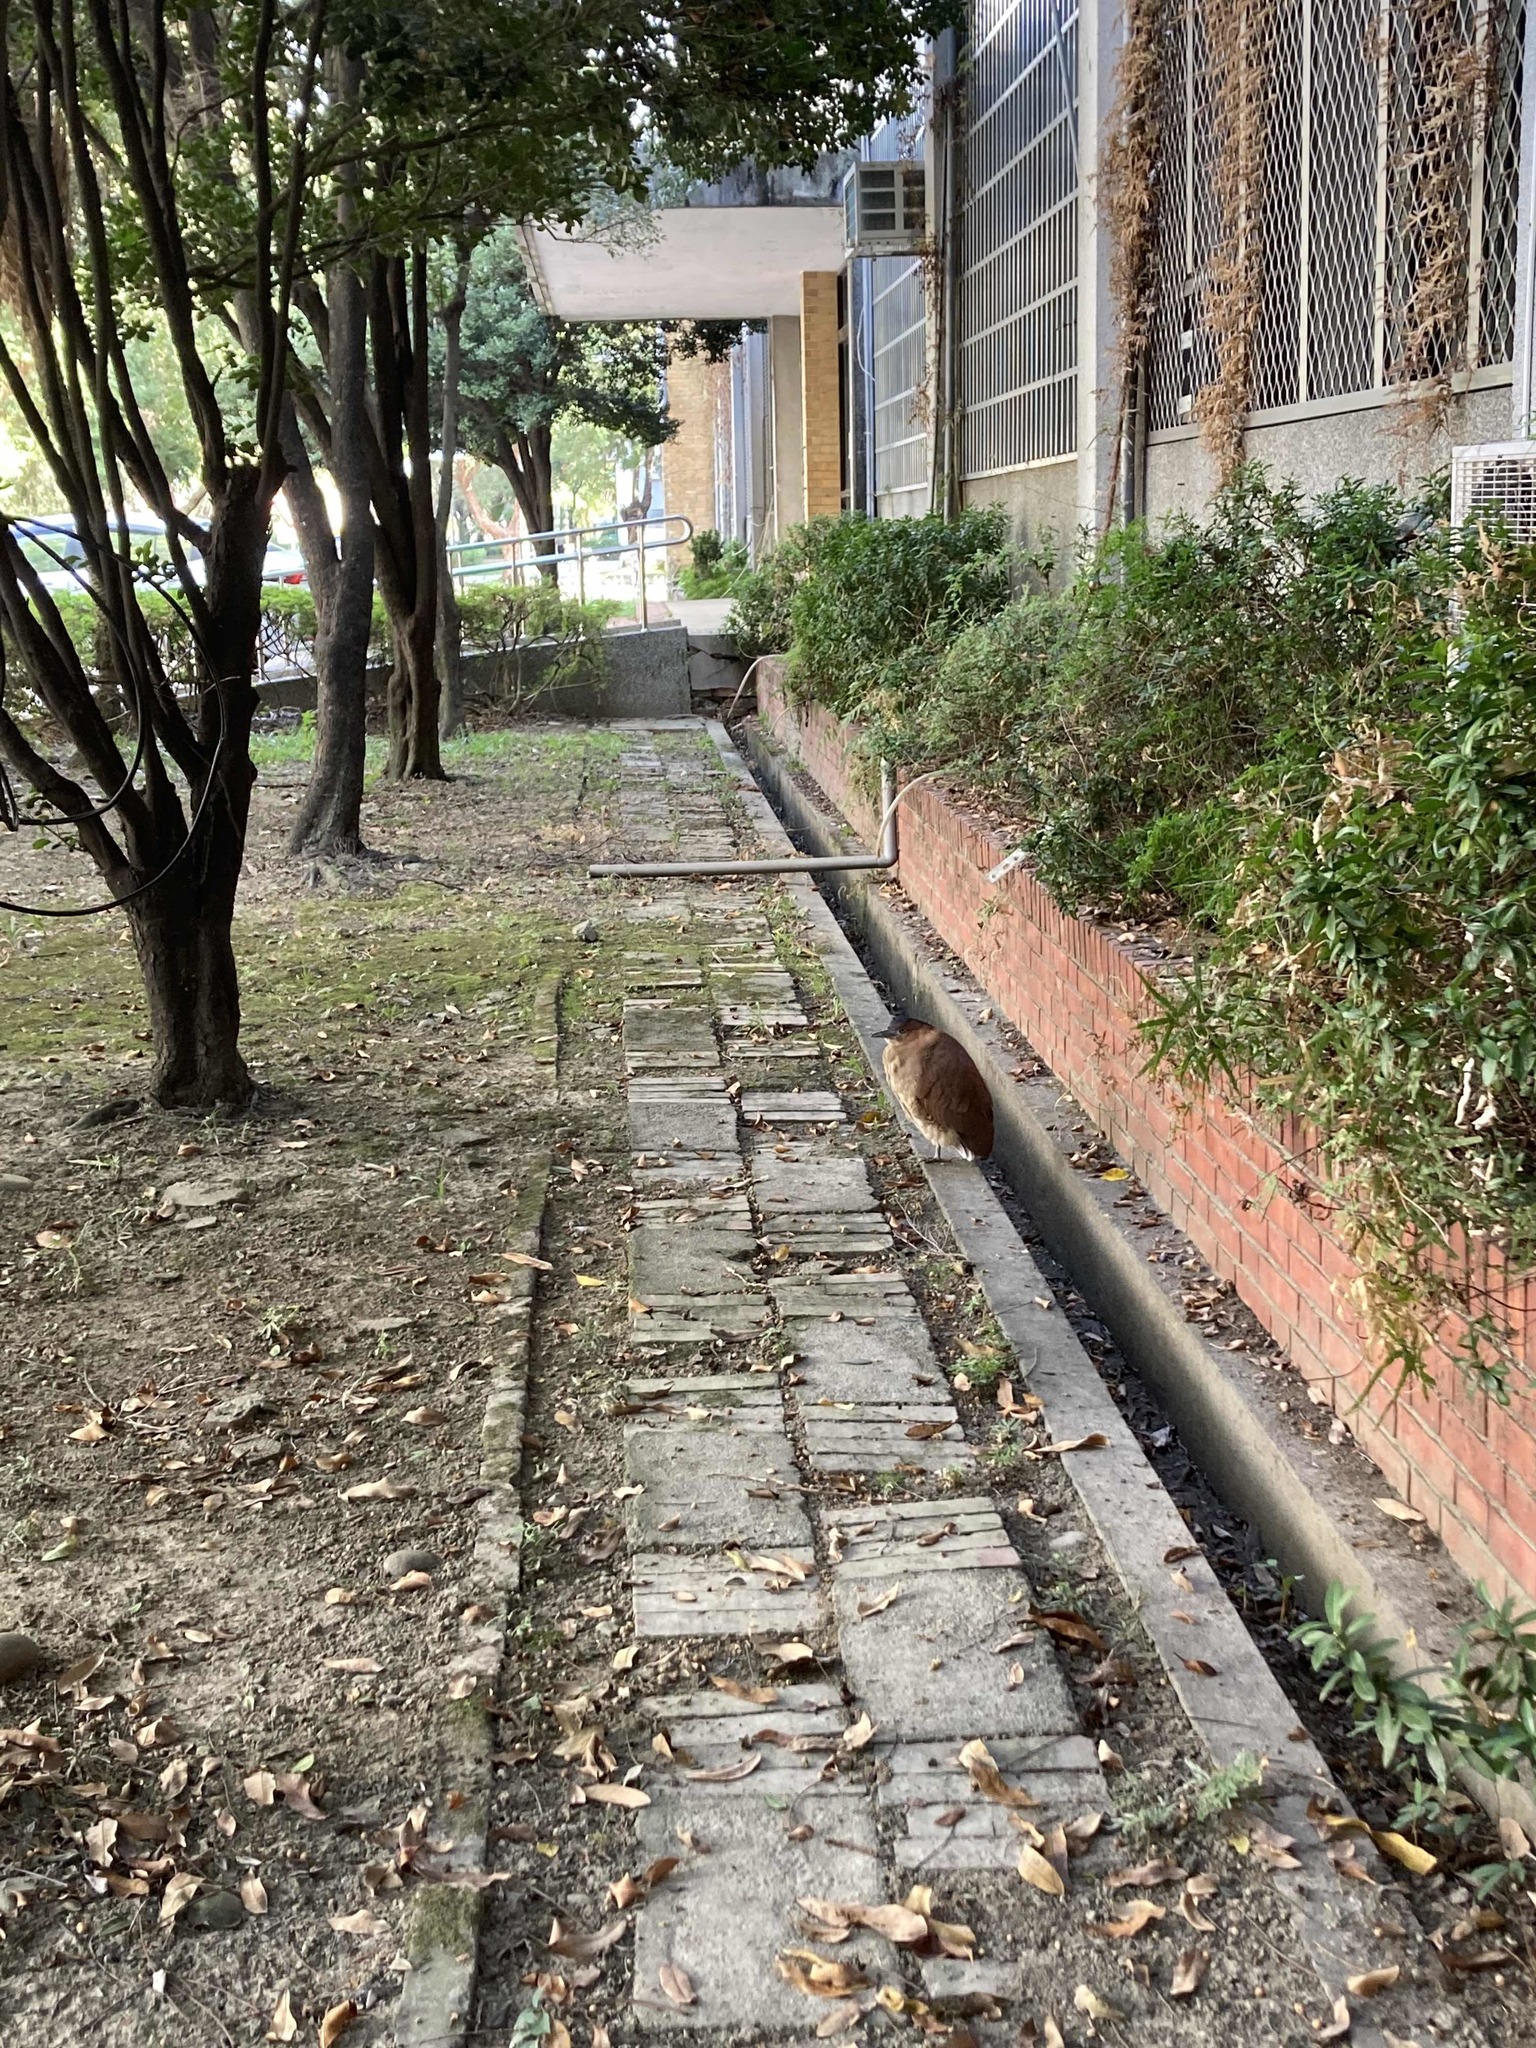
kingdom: Animalia
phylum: Chordata
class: Aves
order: Pelecaniformes
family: Ardeidae
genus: Gorsachius
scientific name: Gorsachius melanolophus
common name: Malayan night heron
